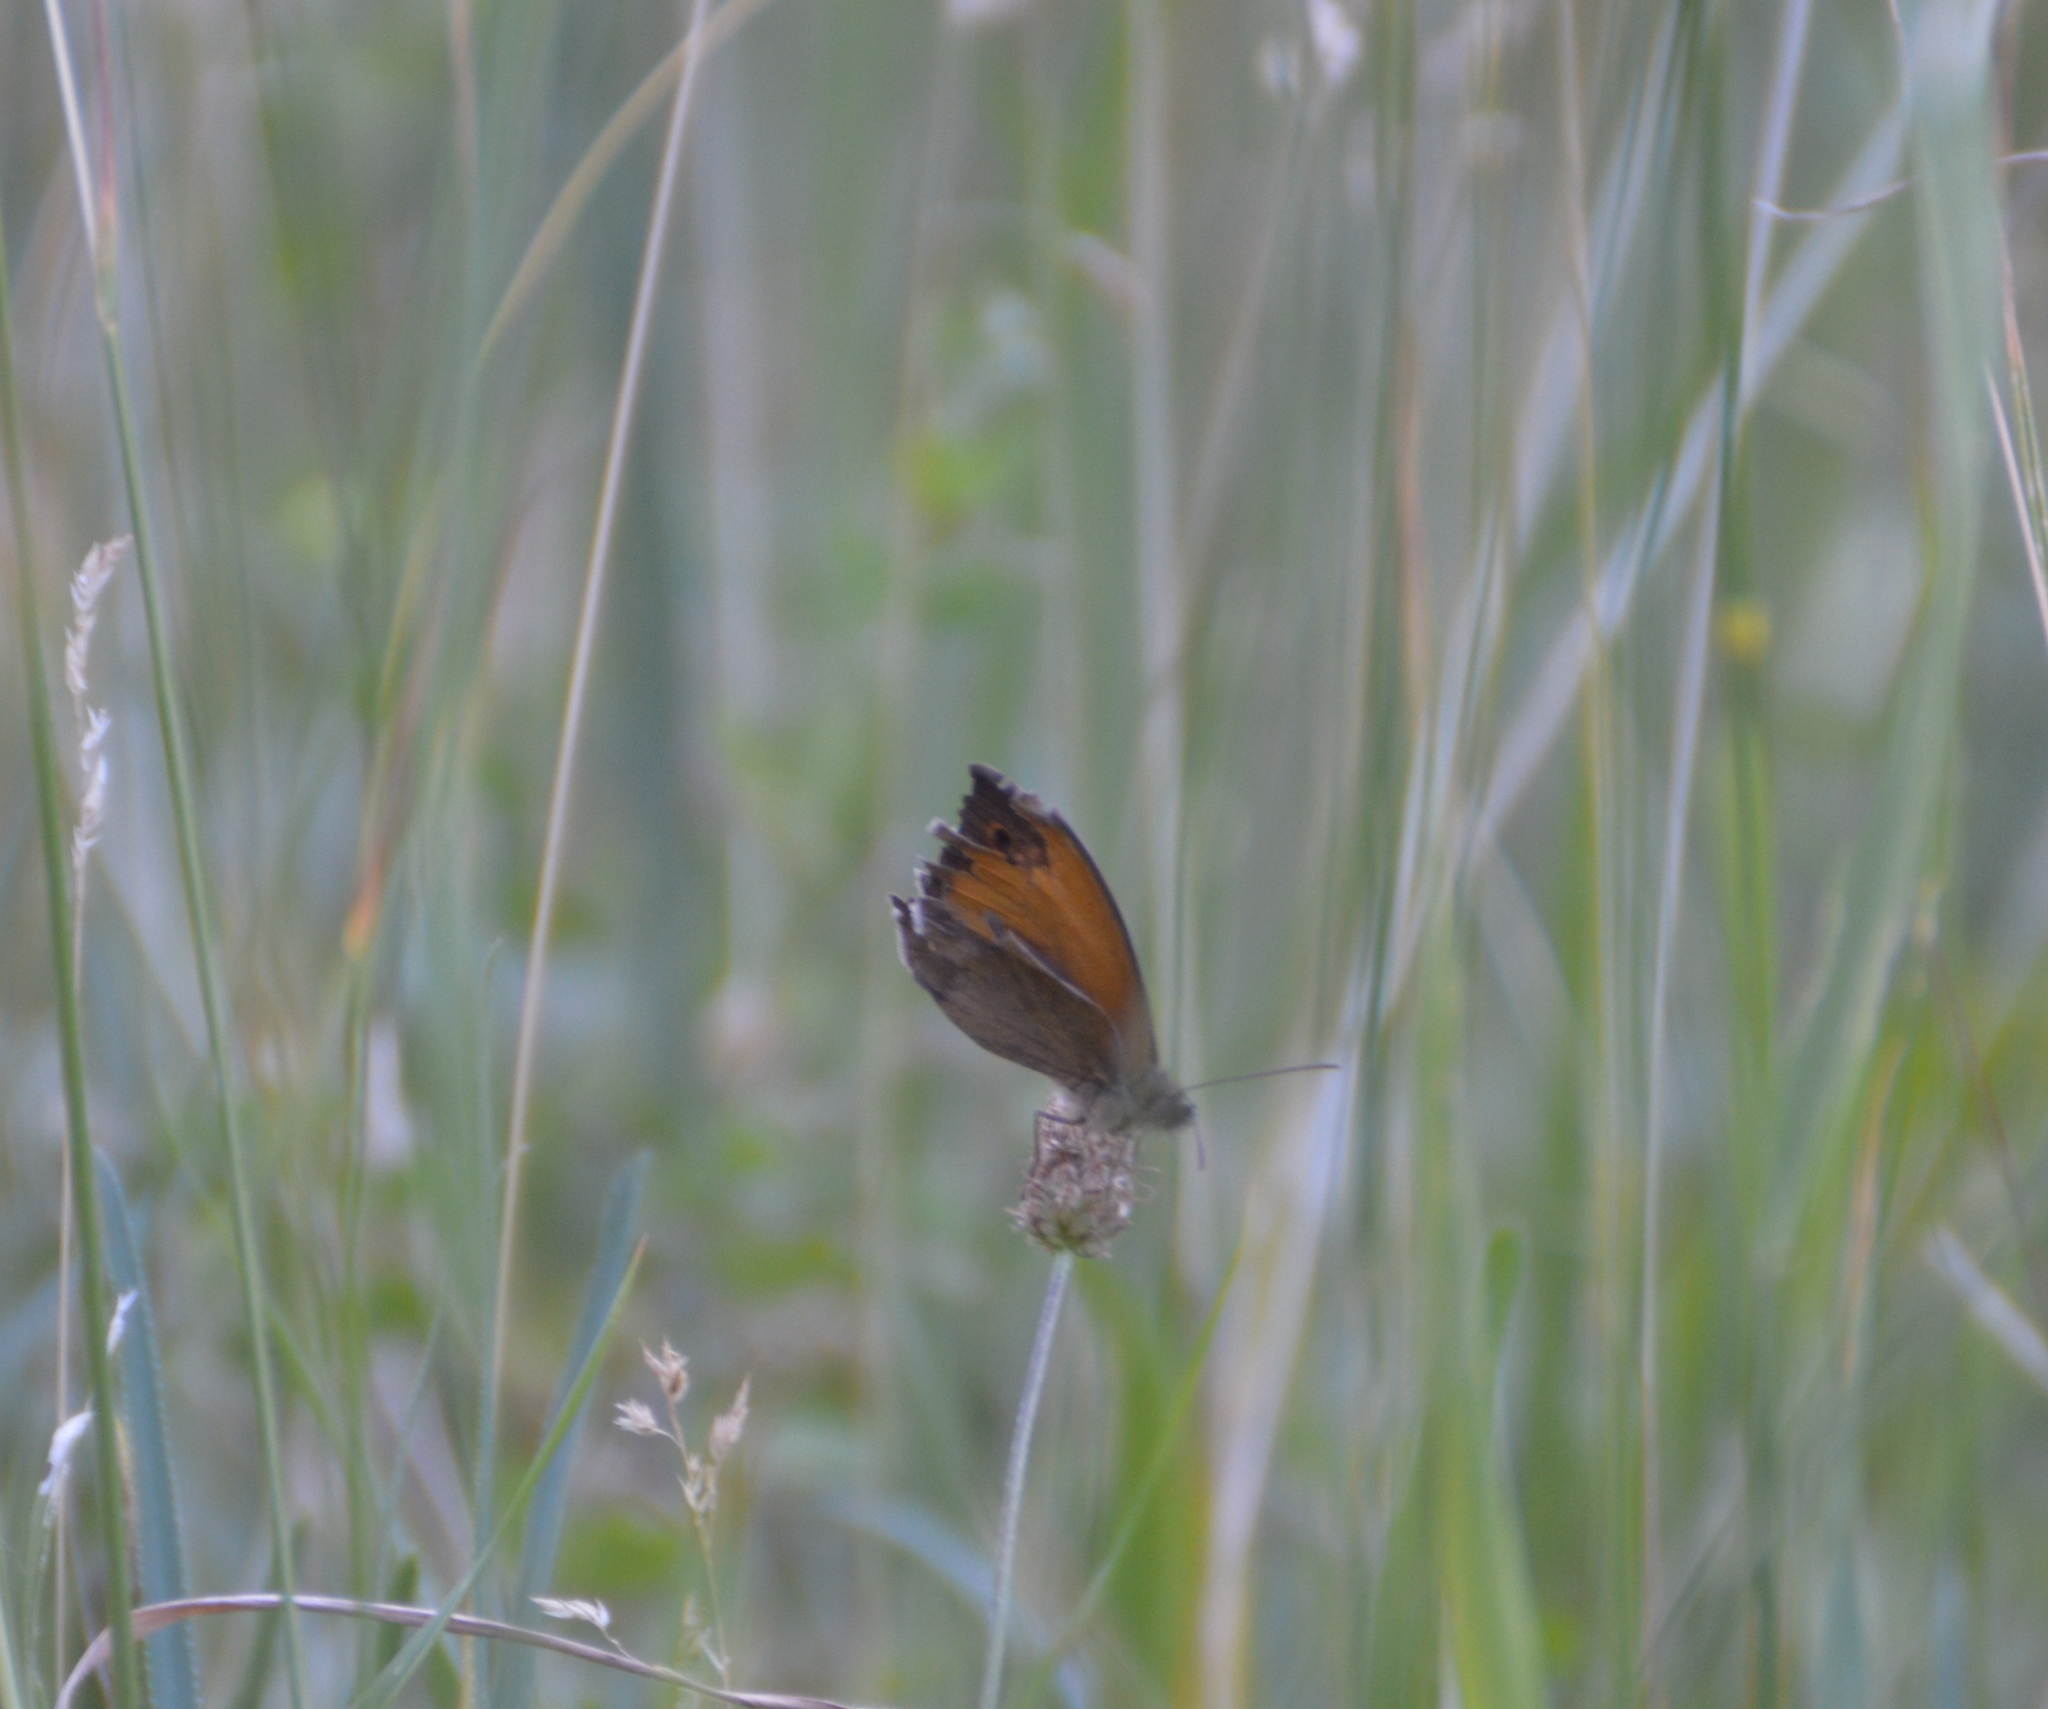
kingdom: Animalia
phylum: Arthropoda
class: Insecta
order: Lepidoptera
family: Nymphalidae
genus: Coenonympha
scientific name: Coenonympha pamphilus
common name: Small heath
